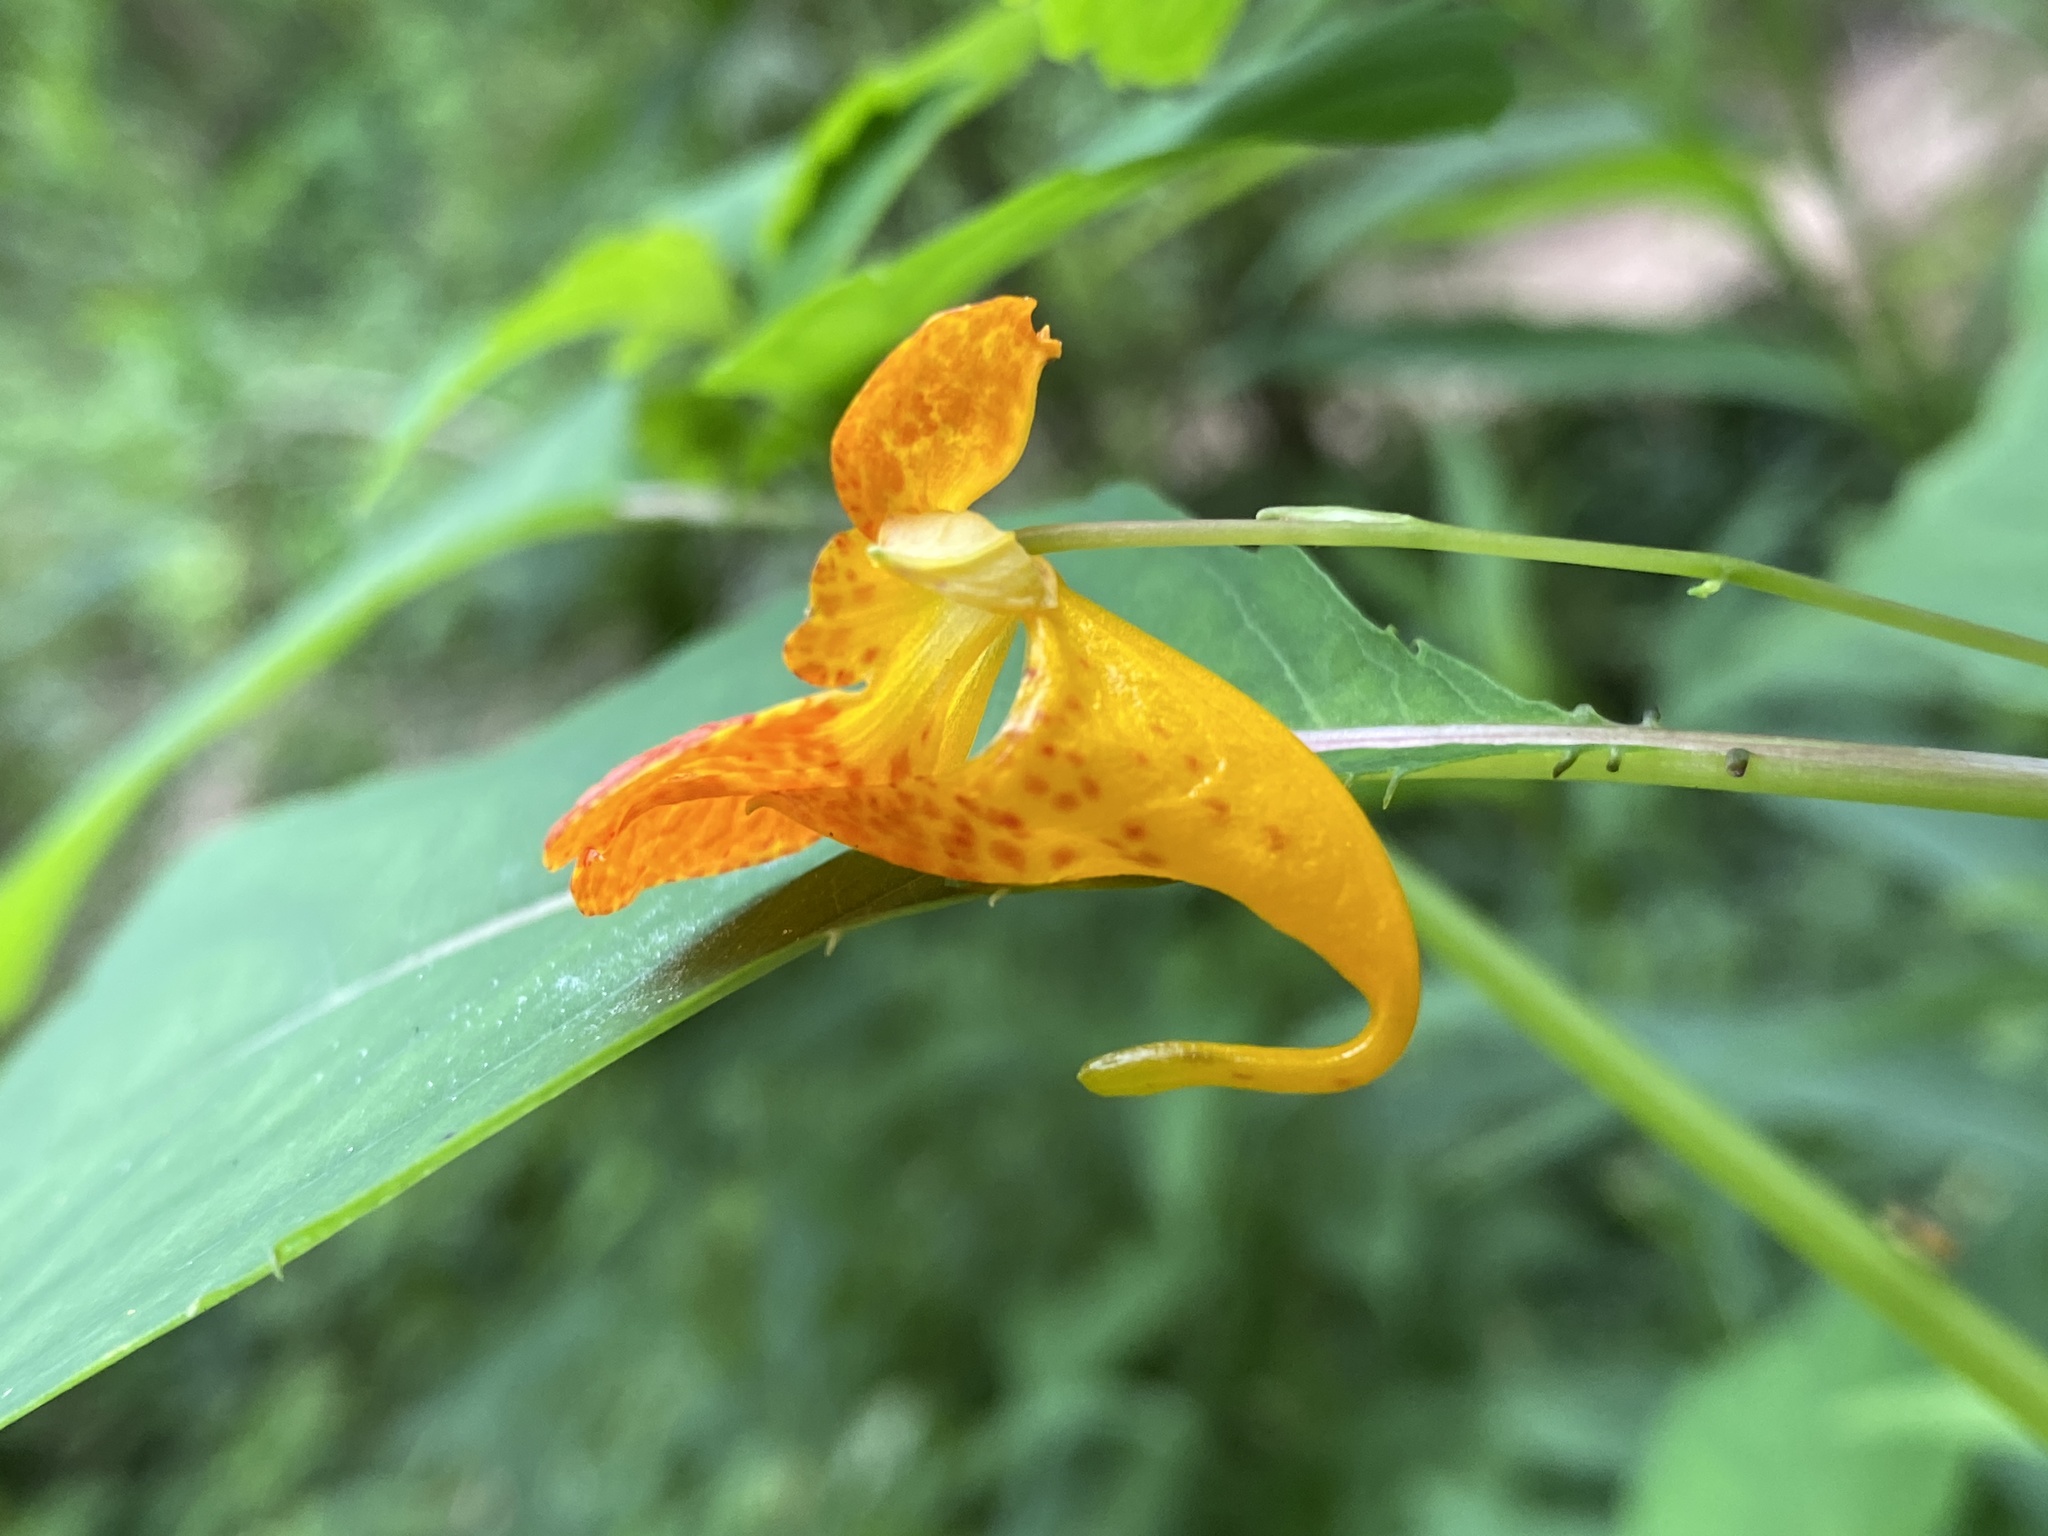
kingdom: Plantae
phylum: Tracheophyta
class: Magnoliopsida
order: Ericales
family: Balsaminaceae
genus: Impatiens
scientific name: Impatiens capensis
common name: Orange balsam
